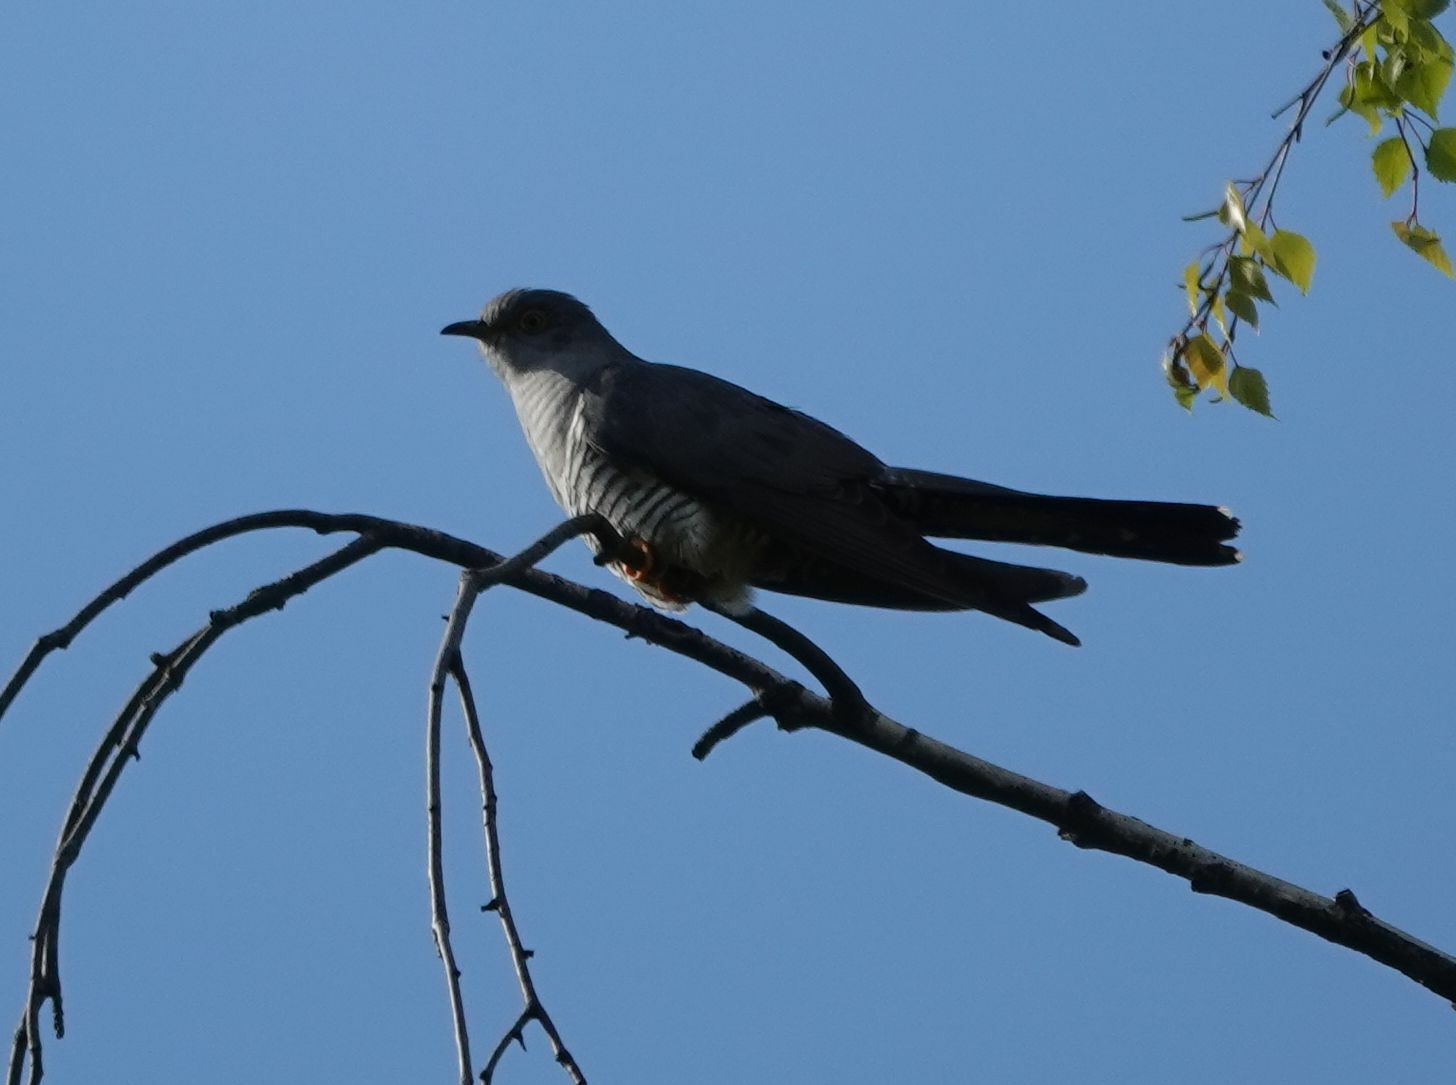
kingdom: Animalia
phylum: Chordata
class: Aves
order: Cuculiformes
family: Cuculidae
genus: Cuculus
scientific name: Cuculus canorus
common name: Common cuckoo
